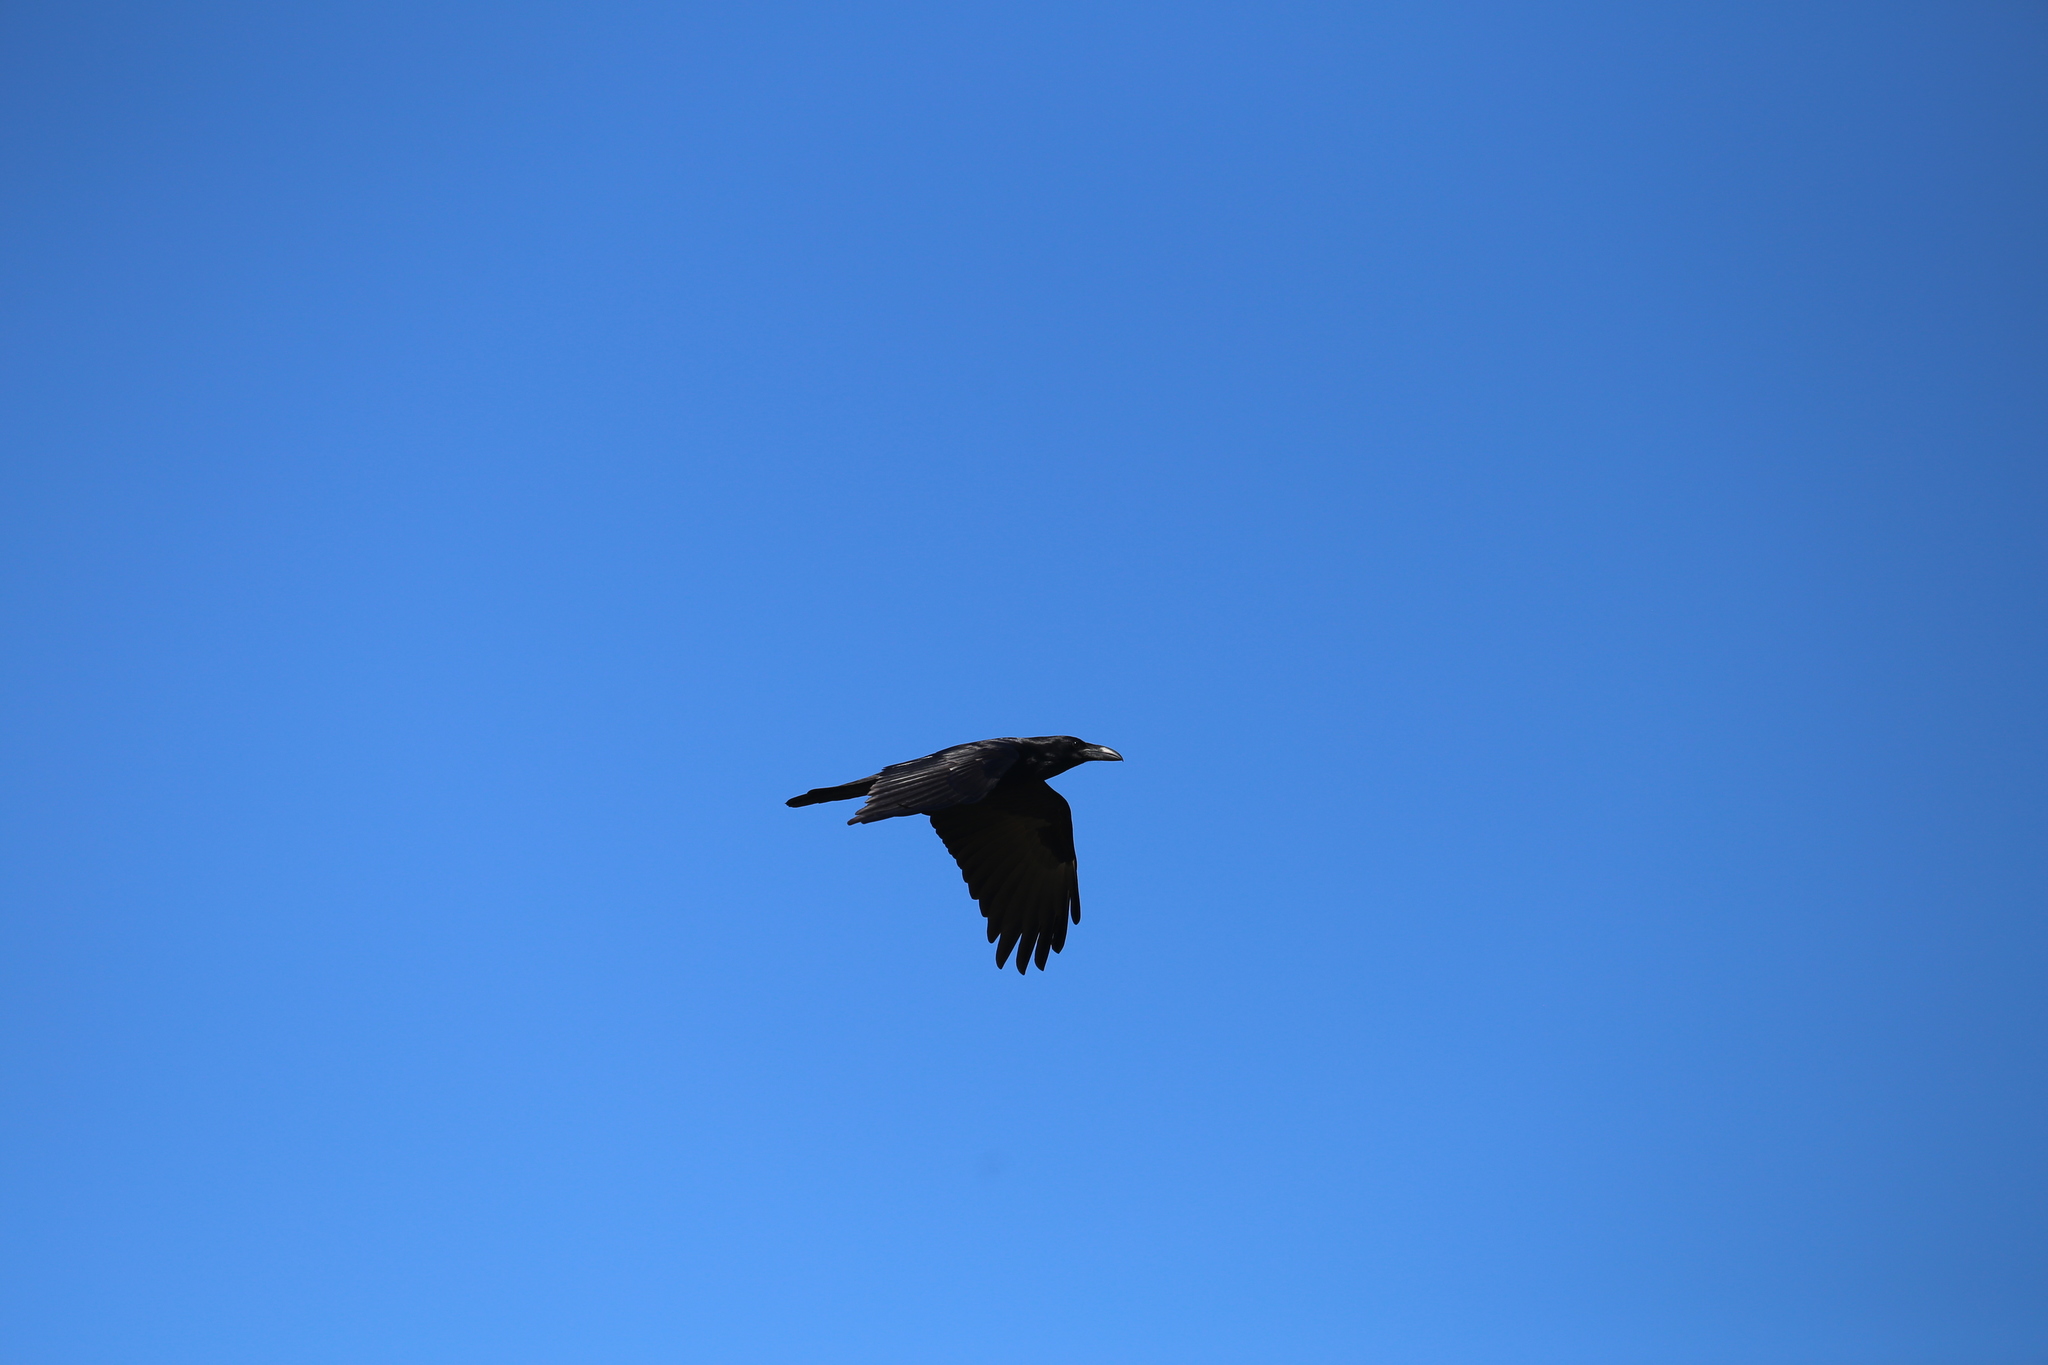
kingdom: Animalia
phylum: Chordata
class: Aves
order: Passeriformes
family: Corvidae
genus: Corvus
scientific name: Corvus corax
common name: Common raven
